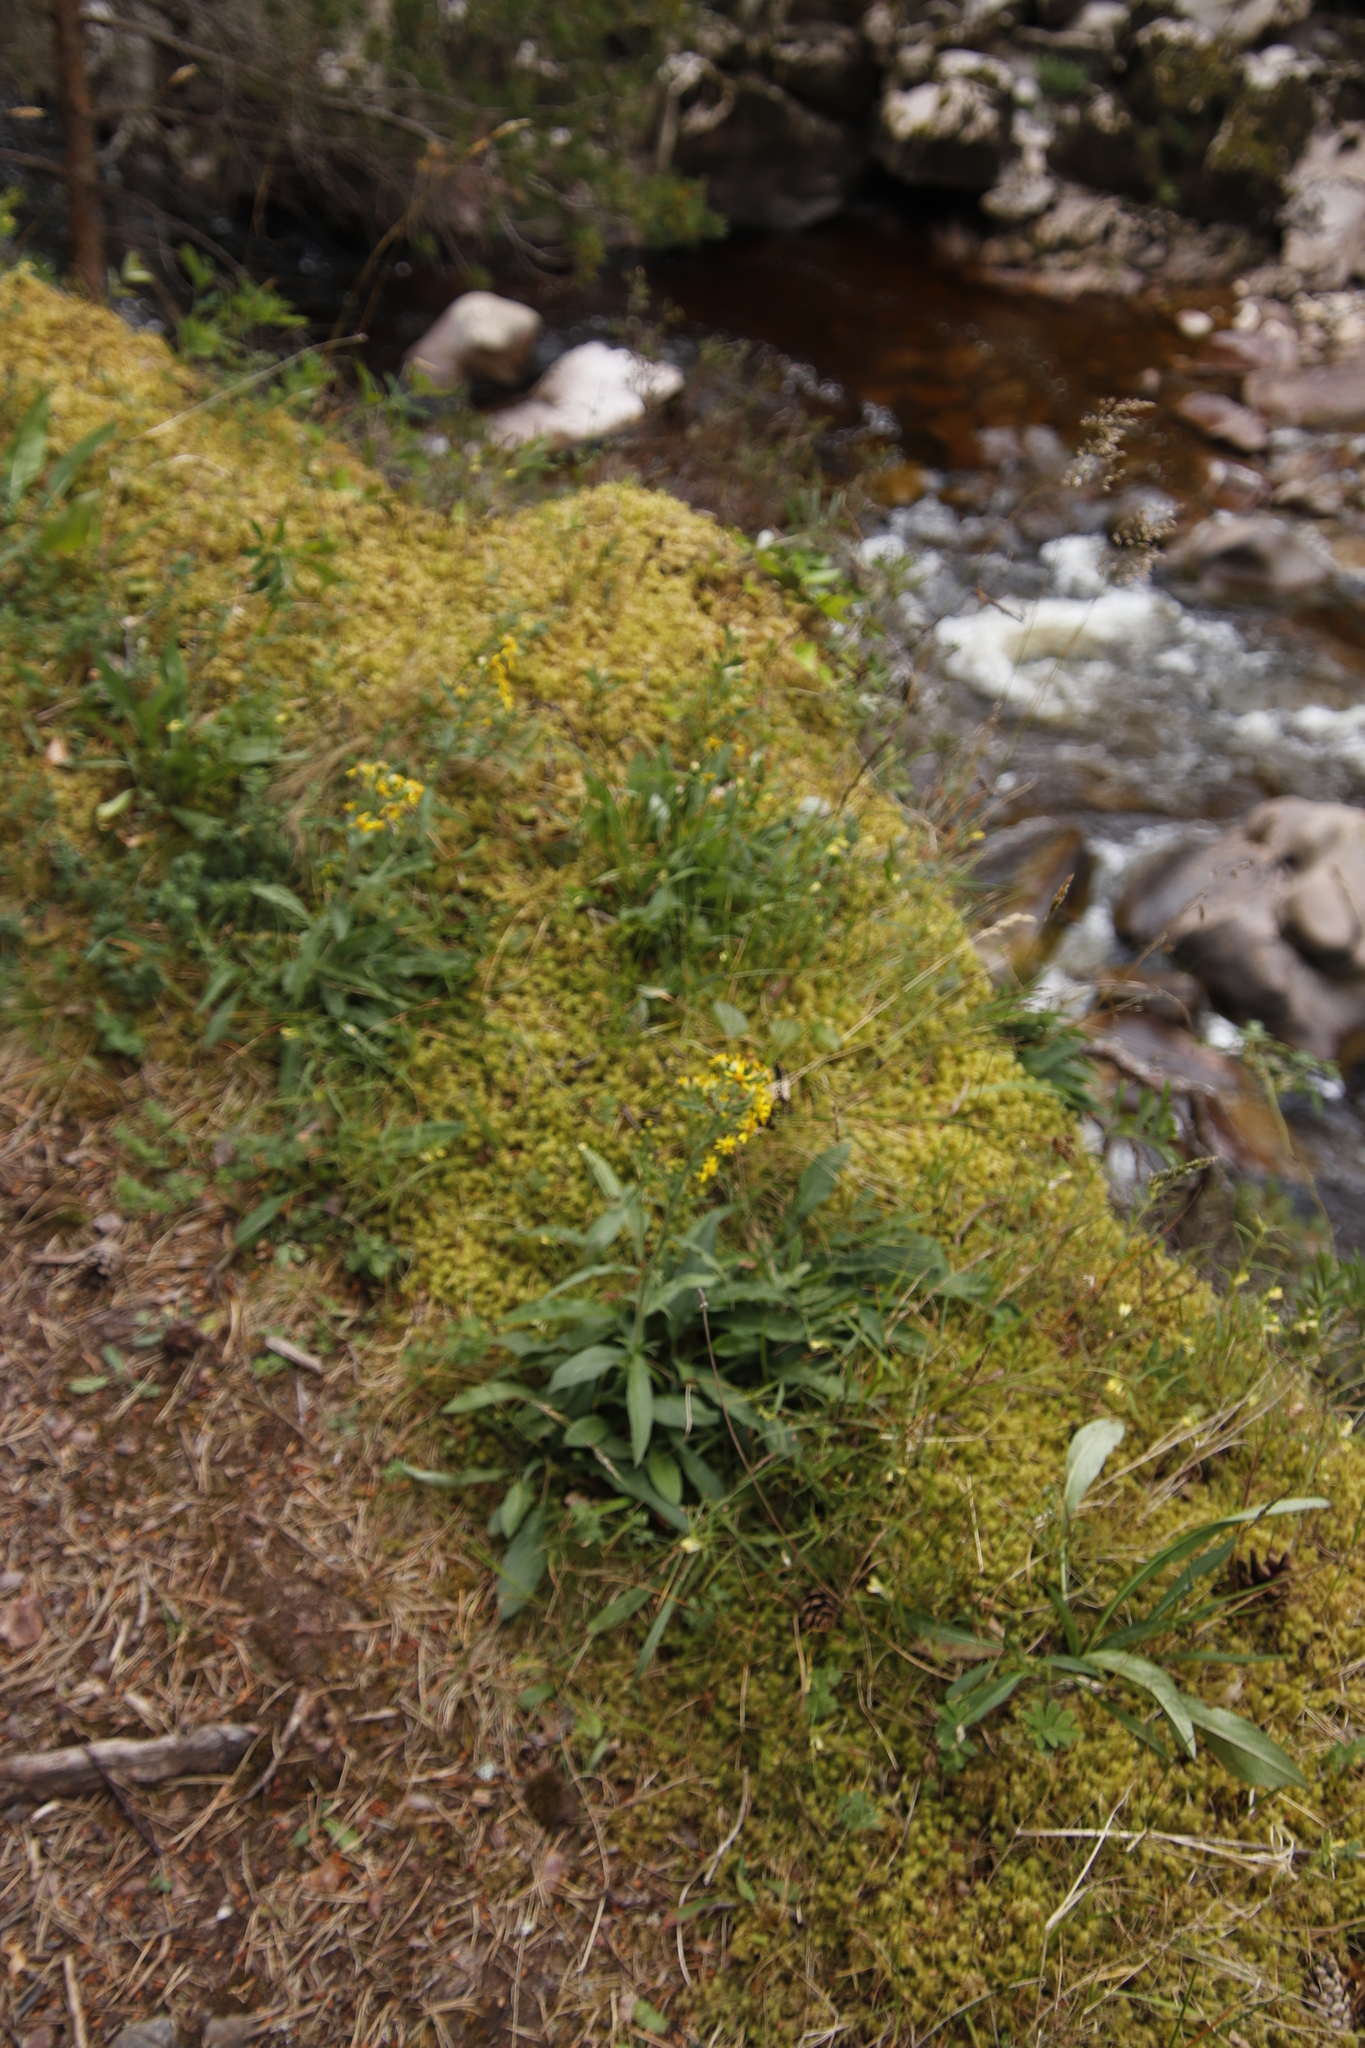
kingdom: Plantae
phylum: Tracheophyta
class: Magnoliopsida
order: Asterales
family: Asteraceae
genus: Solidago
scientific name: Solidago virgaurea
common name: Goldenrod
